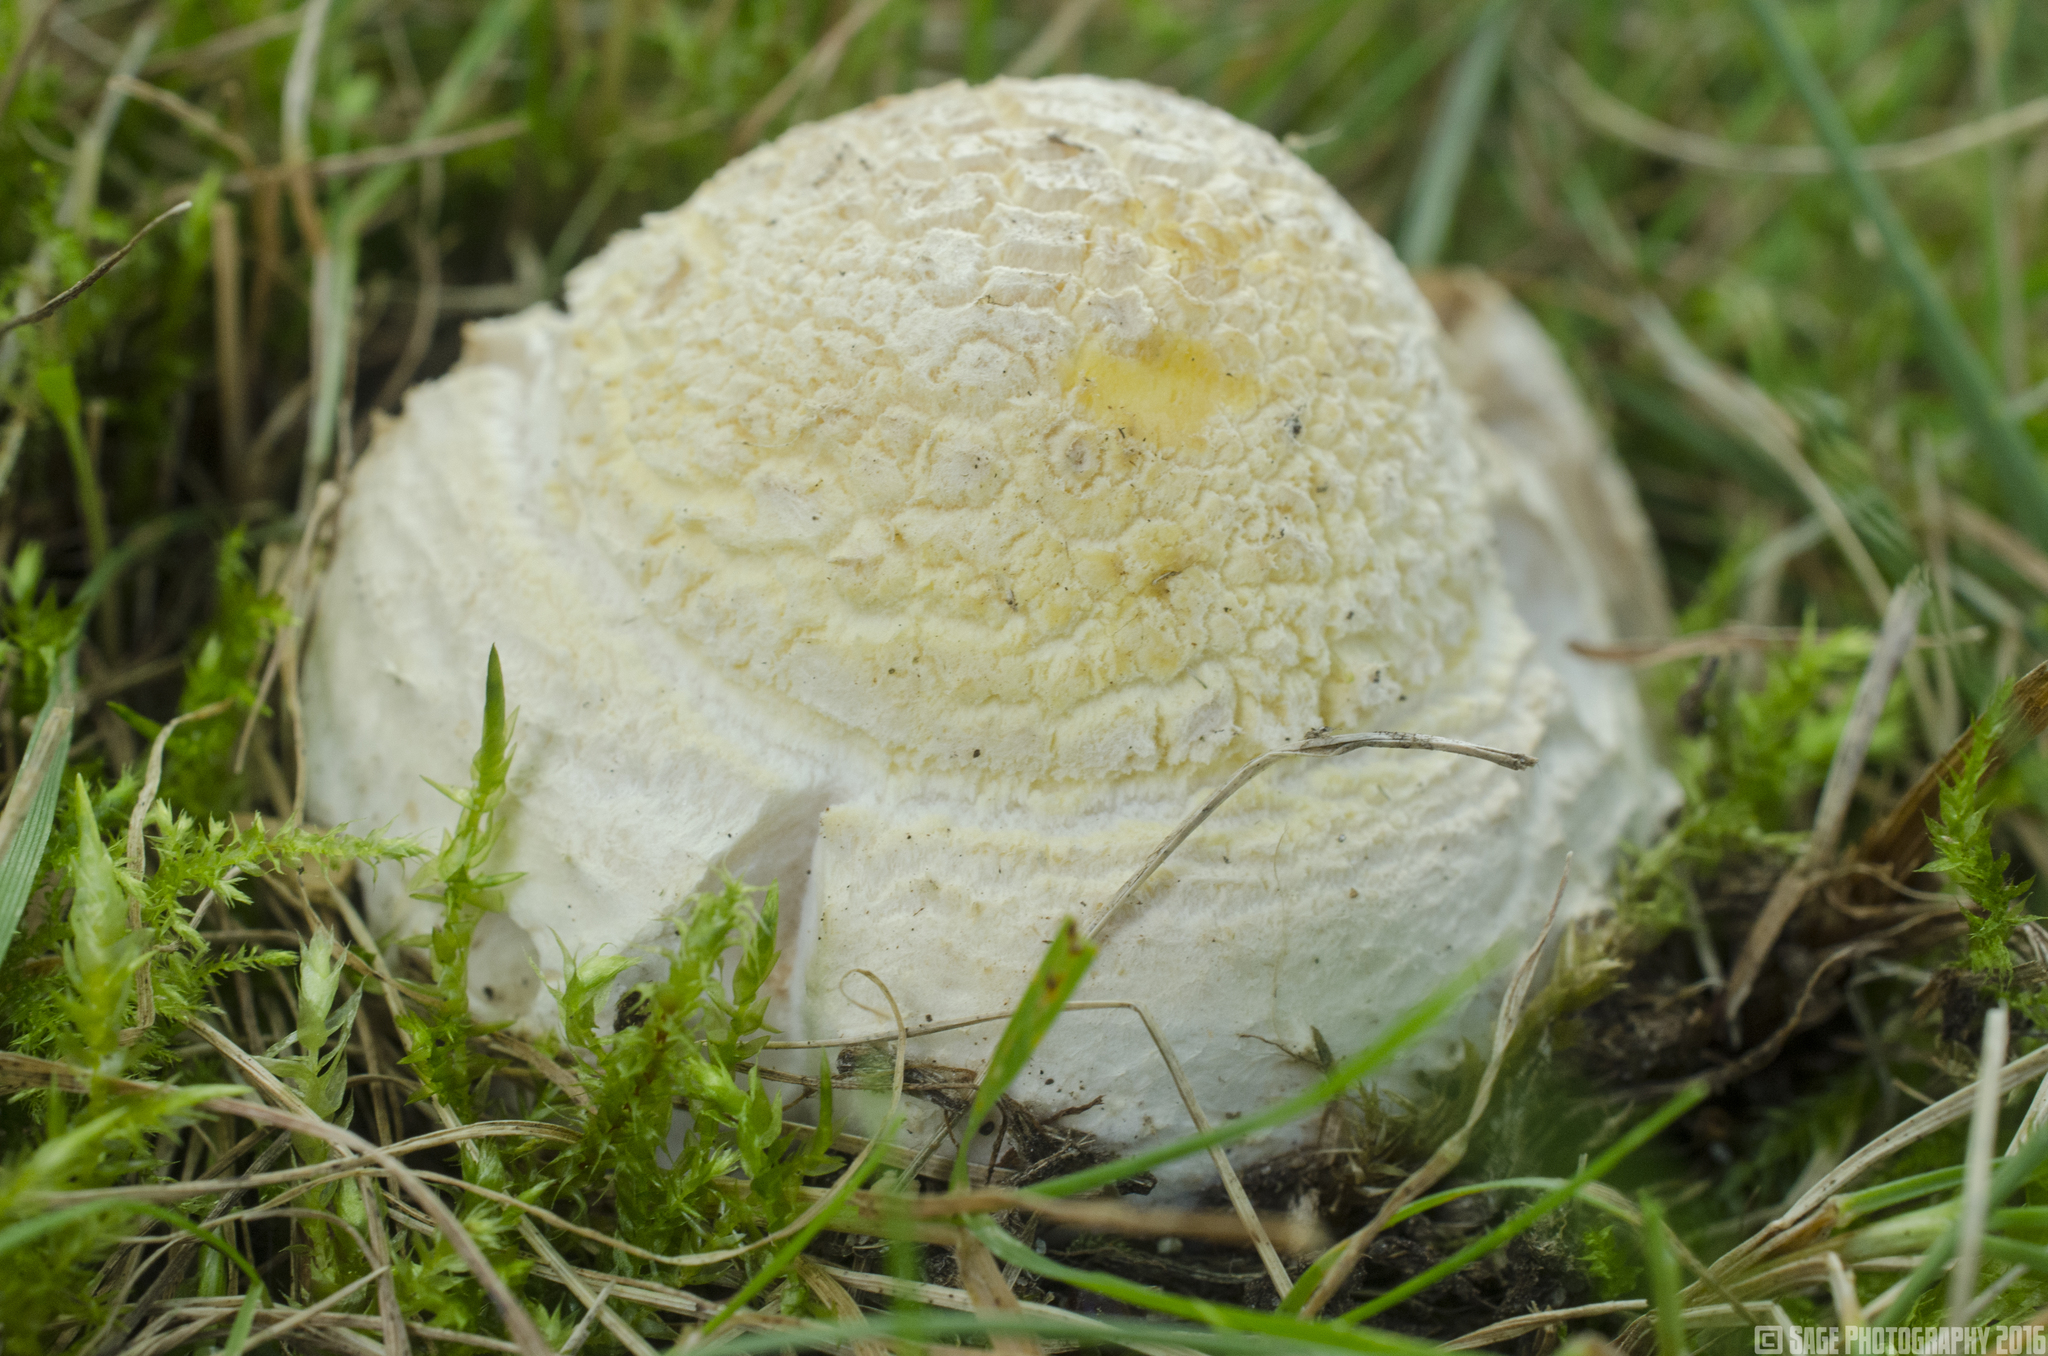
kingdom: Fungi
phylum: Basidiomycota
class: Agaricomycetes
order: Agaricales
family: Amanitaceae
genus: Amanita
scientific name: Amanita muscaria
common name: Fly agaric
